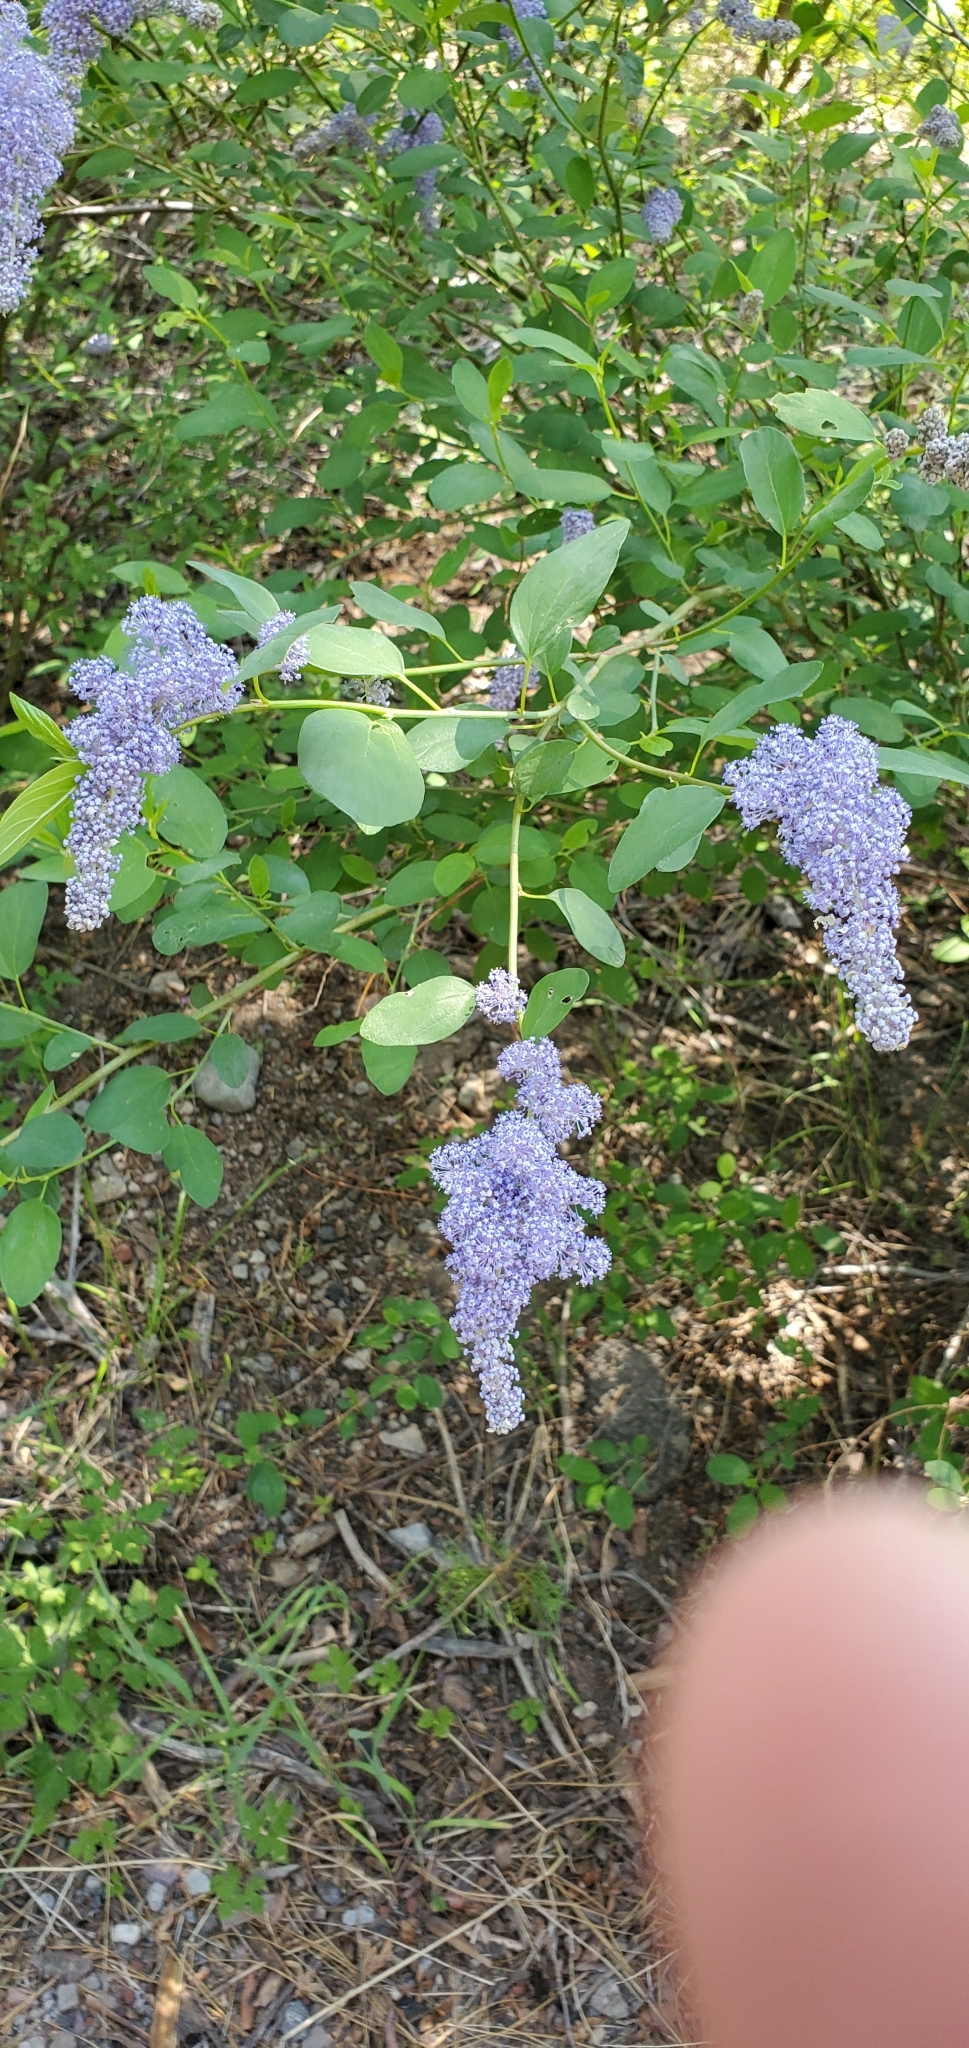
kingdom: Plantae
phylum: Tracheophyta
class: Magnoliopsida
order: Rosales
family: Rhamnaceae
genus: Ceanothus
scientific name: Ceanothus integerrimus
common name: Deerbrush ceanothus
